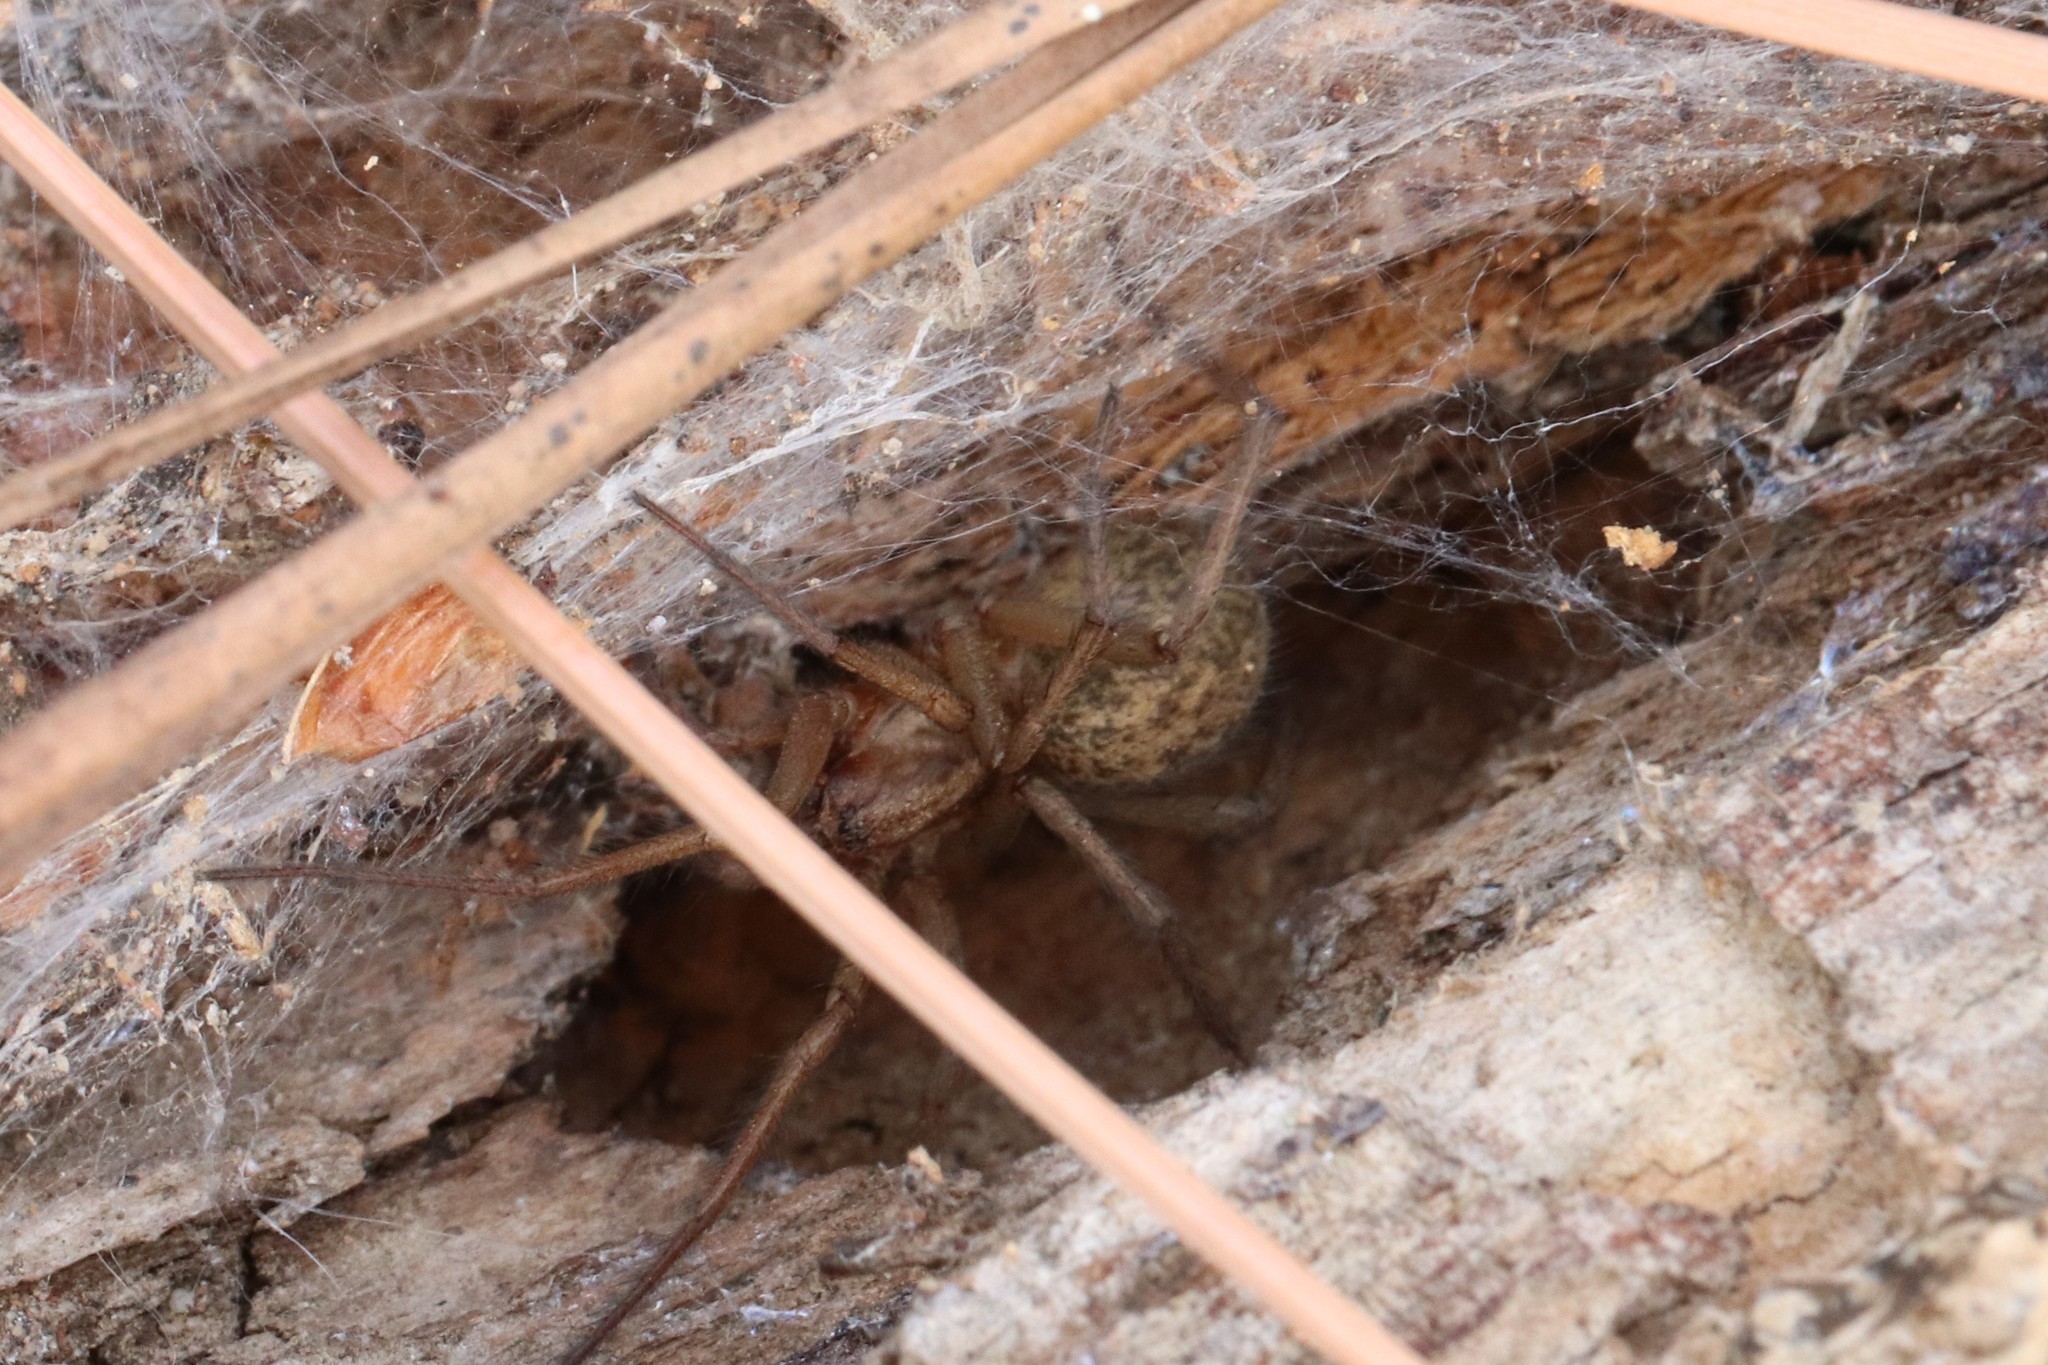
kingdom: Animalia
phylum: Arthropoda
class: Arachnida
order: Araneae
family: Agelenidae
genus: Eratigena
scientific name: Eratigena agrestis
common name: Hobo spider
